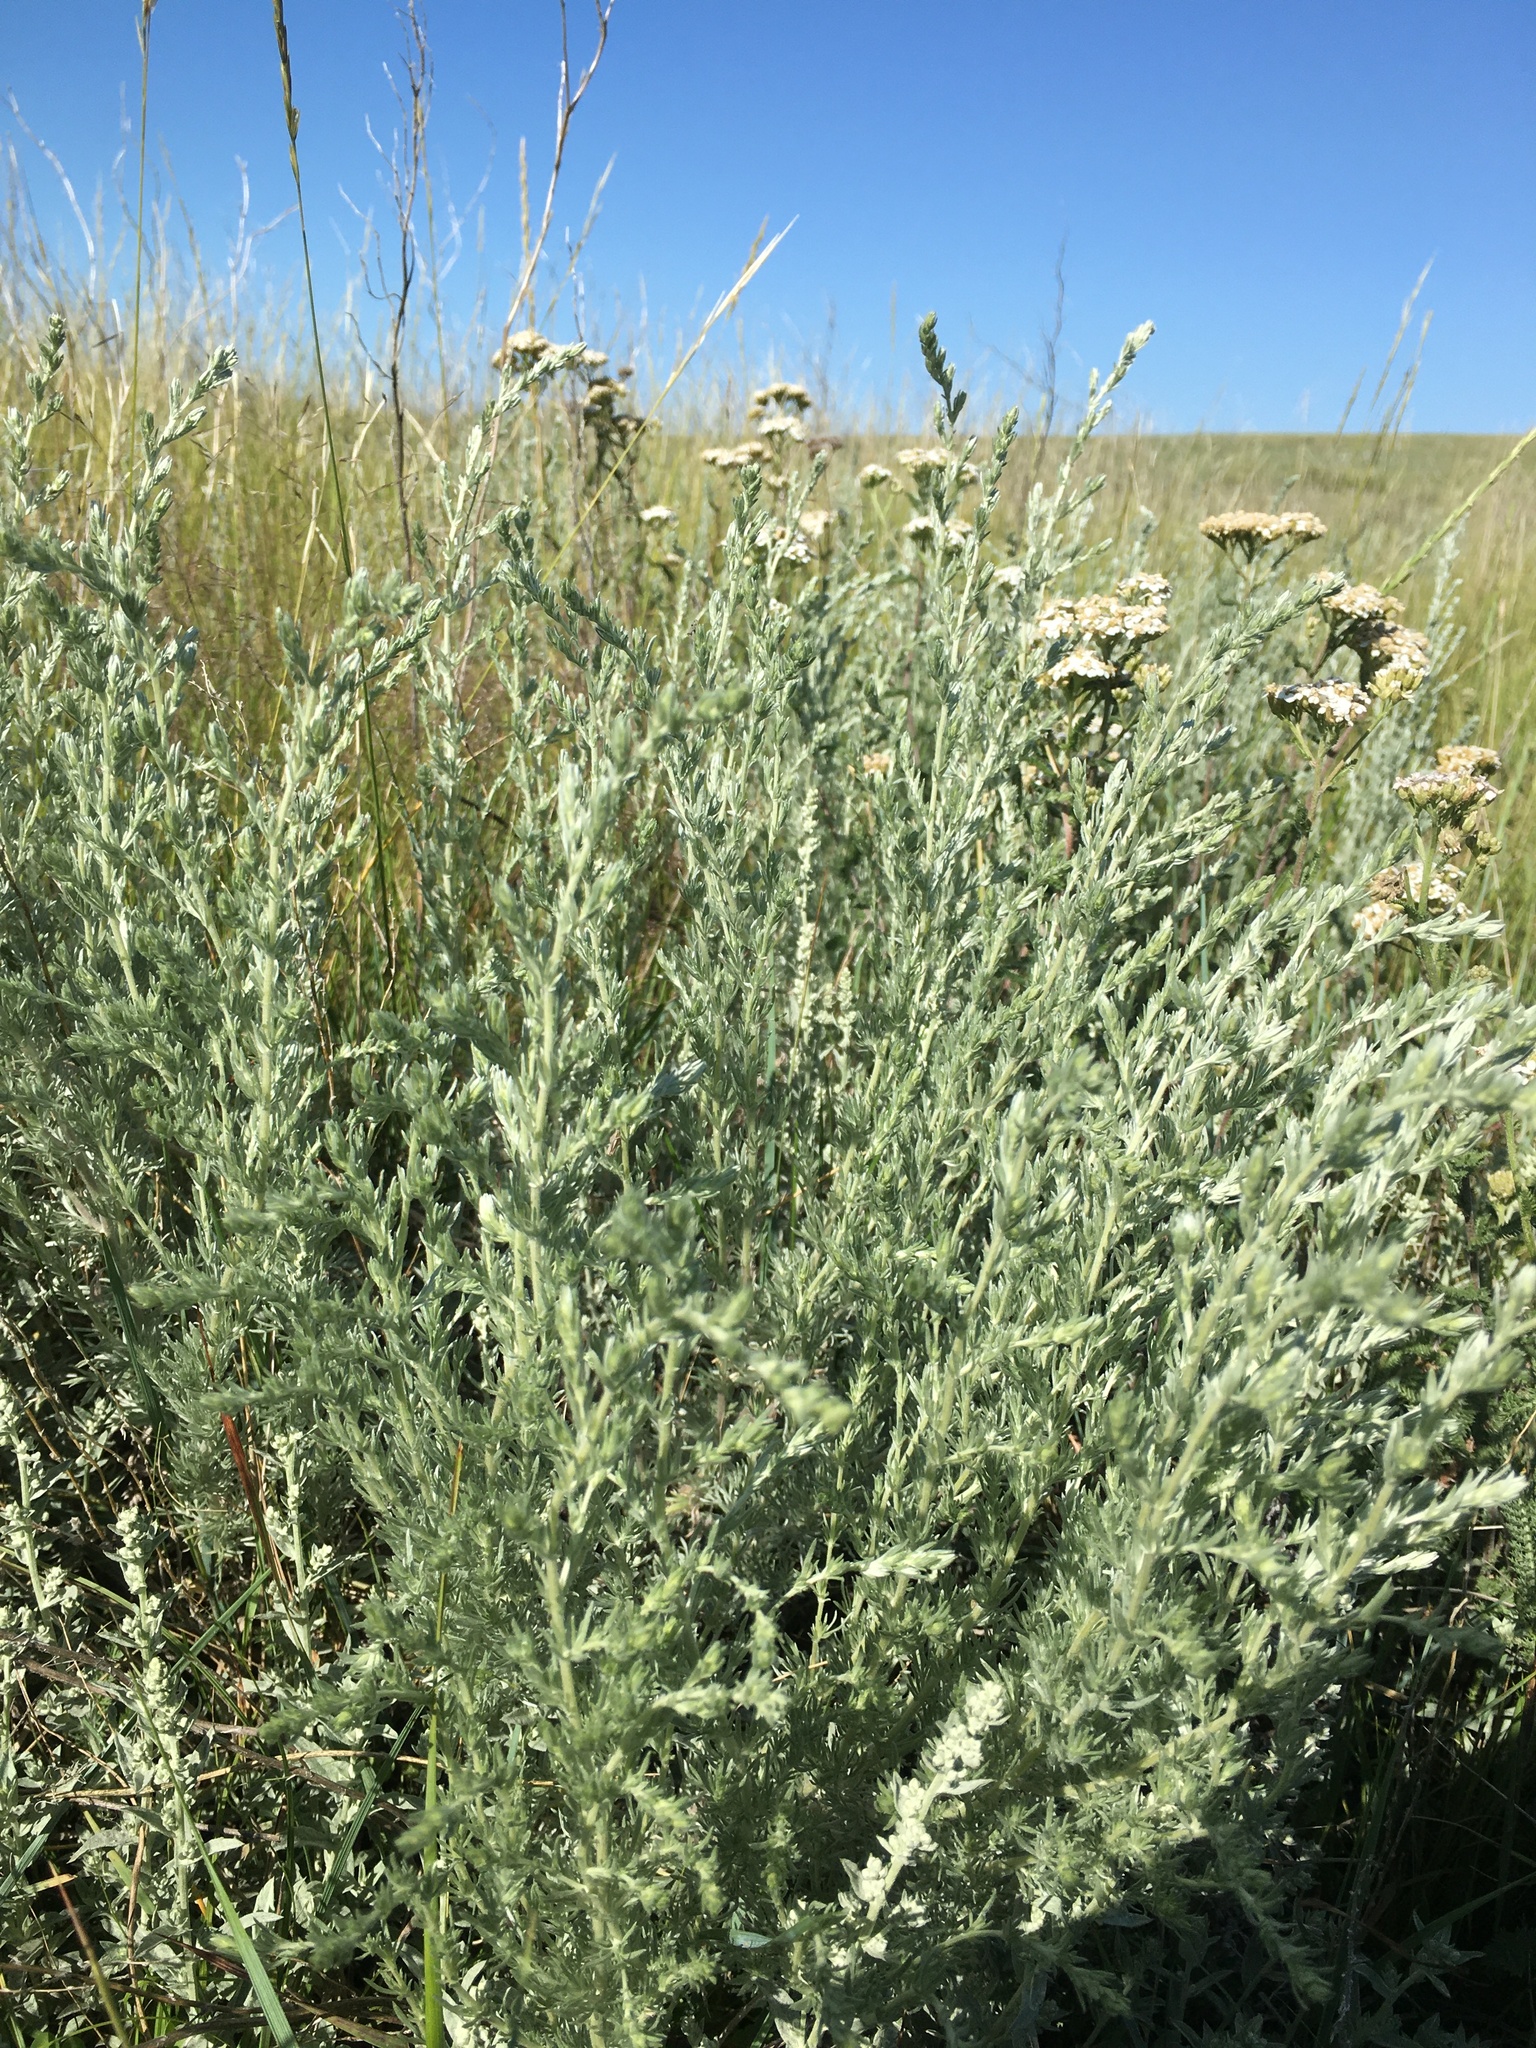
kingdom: Plantae
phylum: Tracheophyta
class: Magnoliopsida
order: Asterales
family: Asteraceae
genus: Artemisia
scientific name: Artemisia frigida
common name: Prairie sagewort
